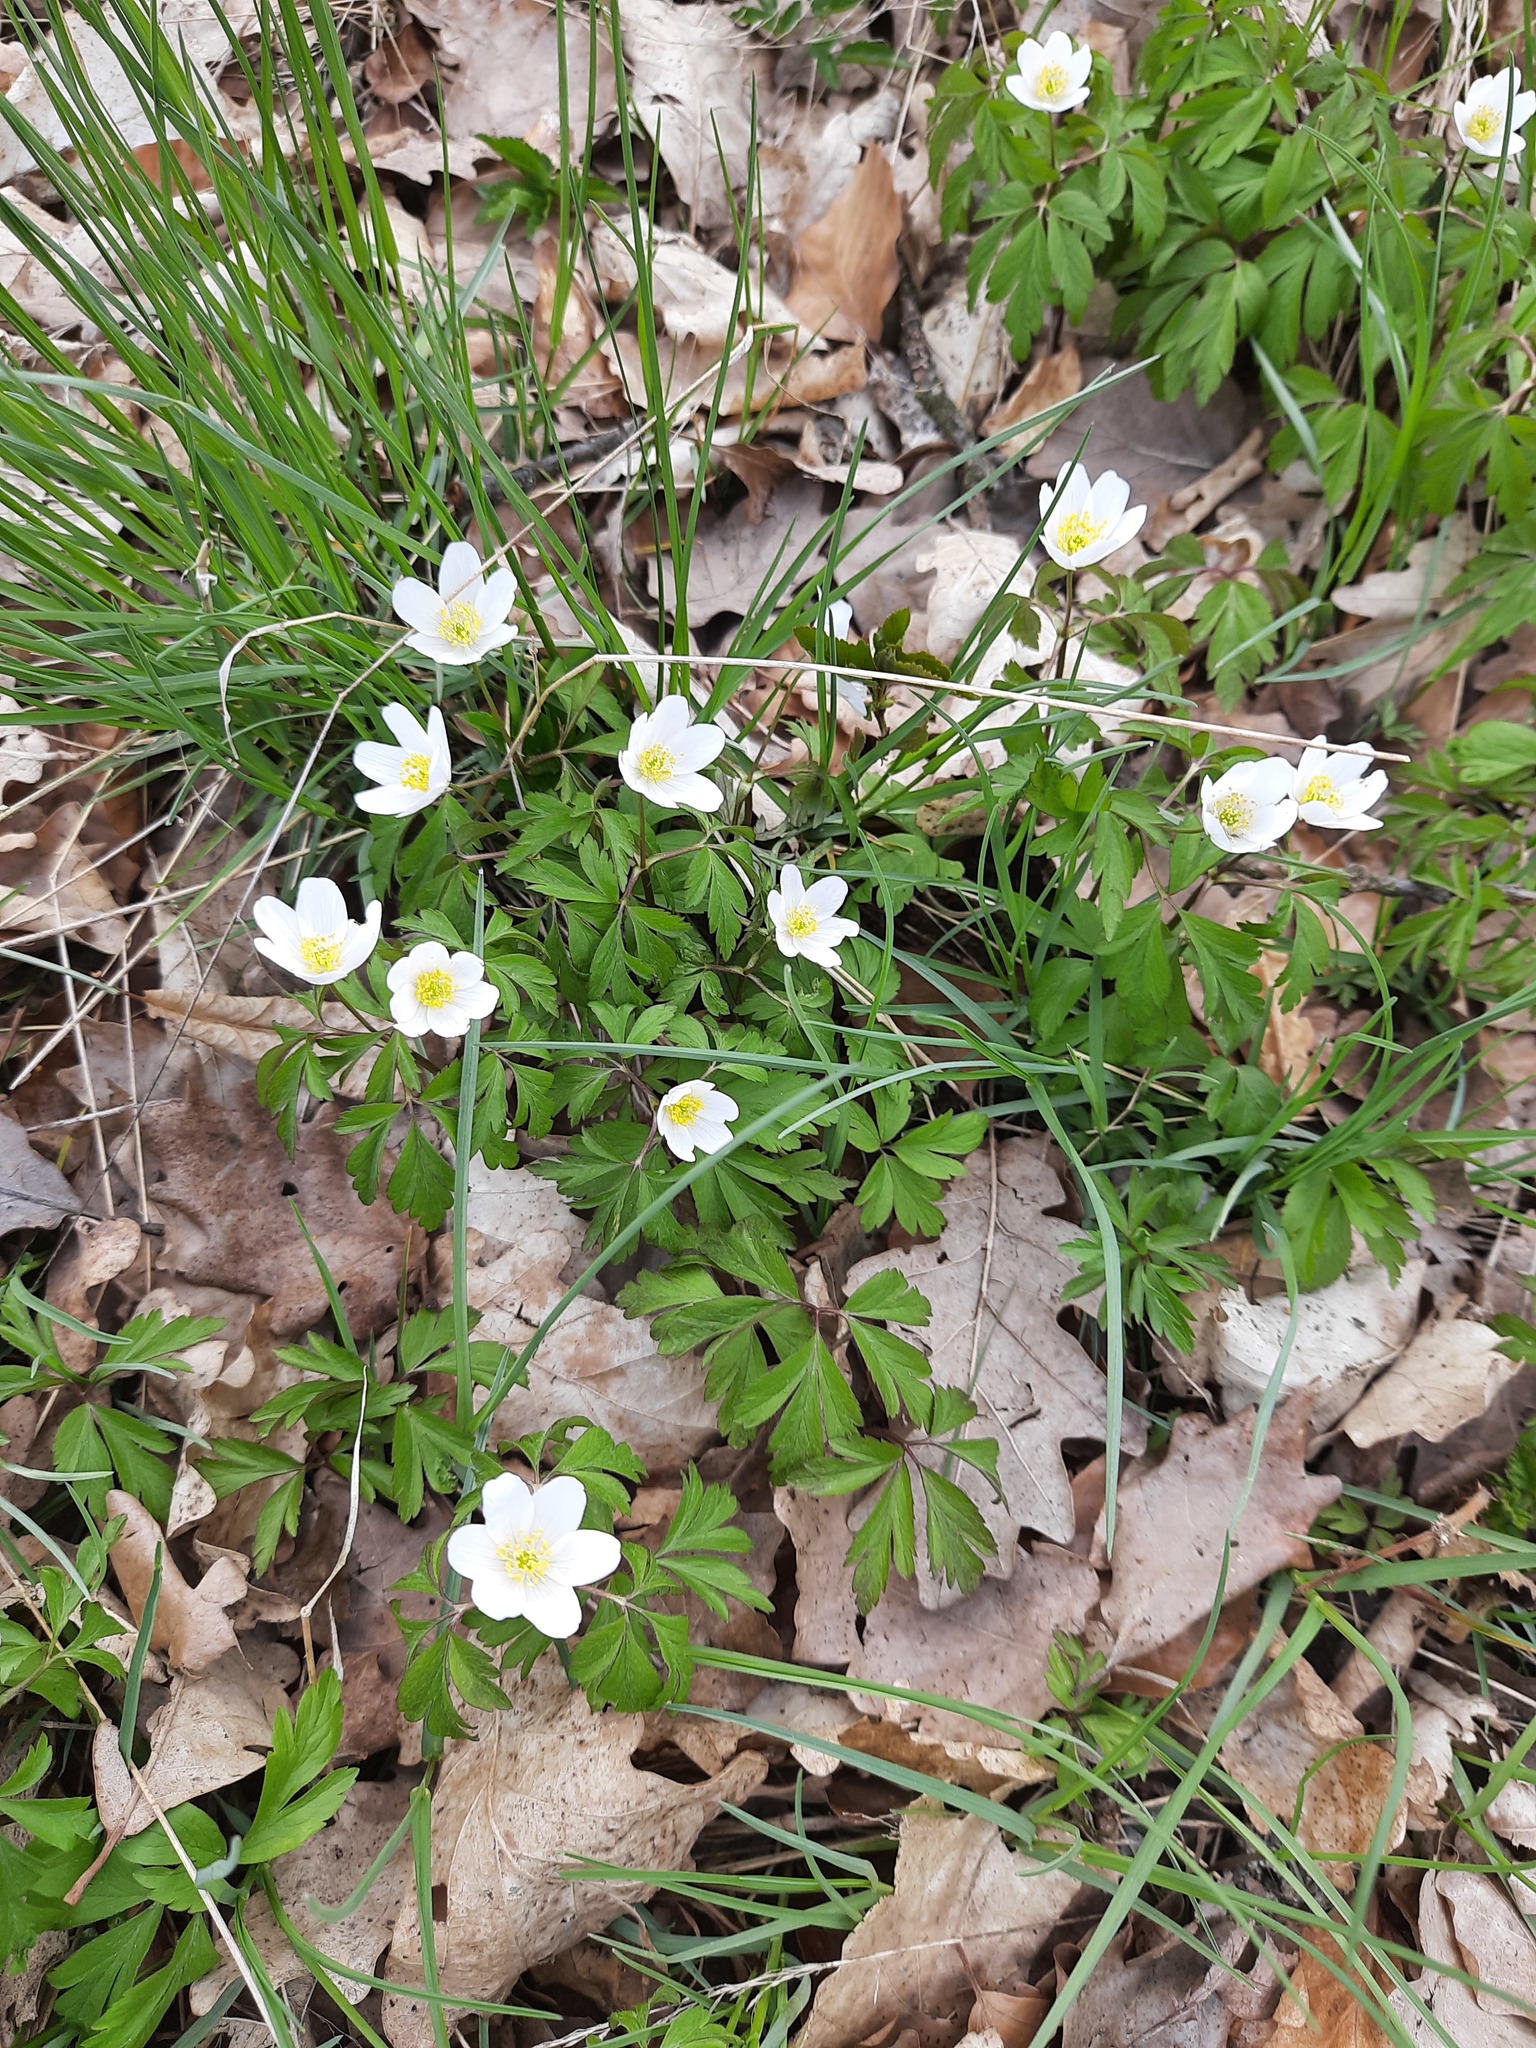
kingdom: Plantae
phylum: Tracheophyta
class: Magnoliopsida
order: Ranunculales
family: Ranunculaceae
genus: Anemone
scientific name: Anemone nemorosa
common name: Wood anemone
